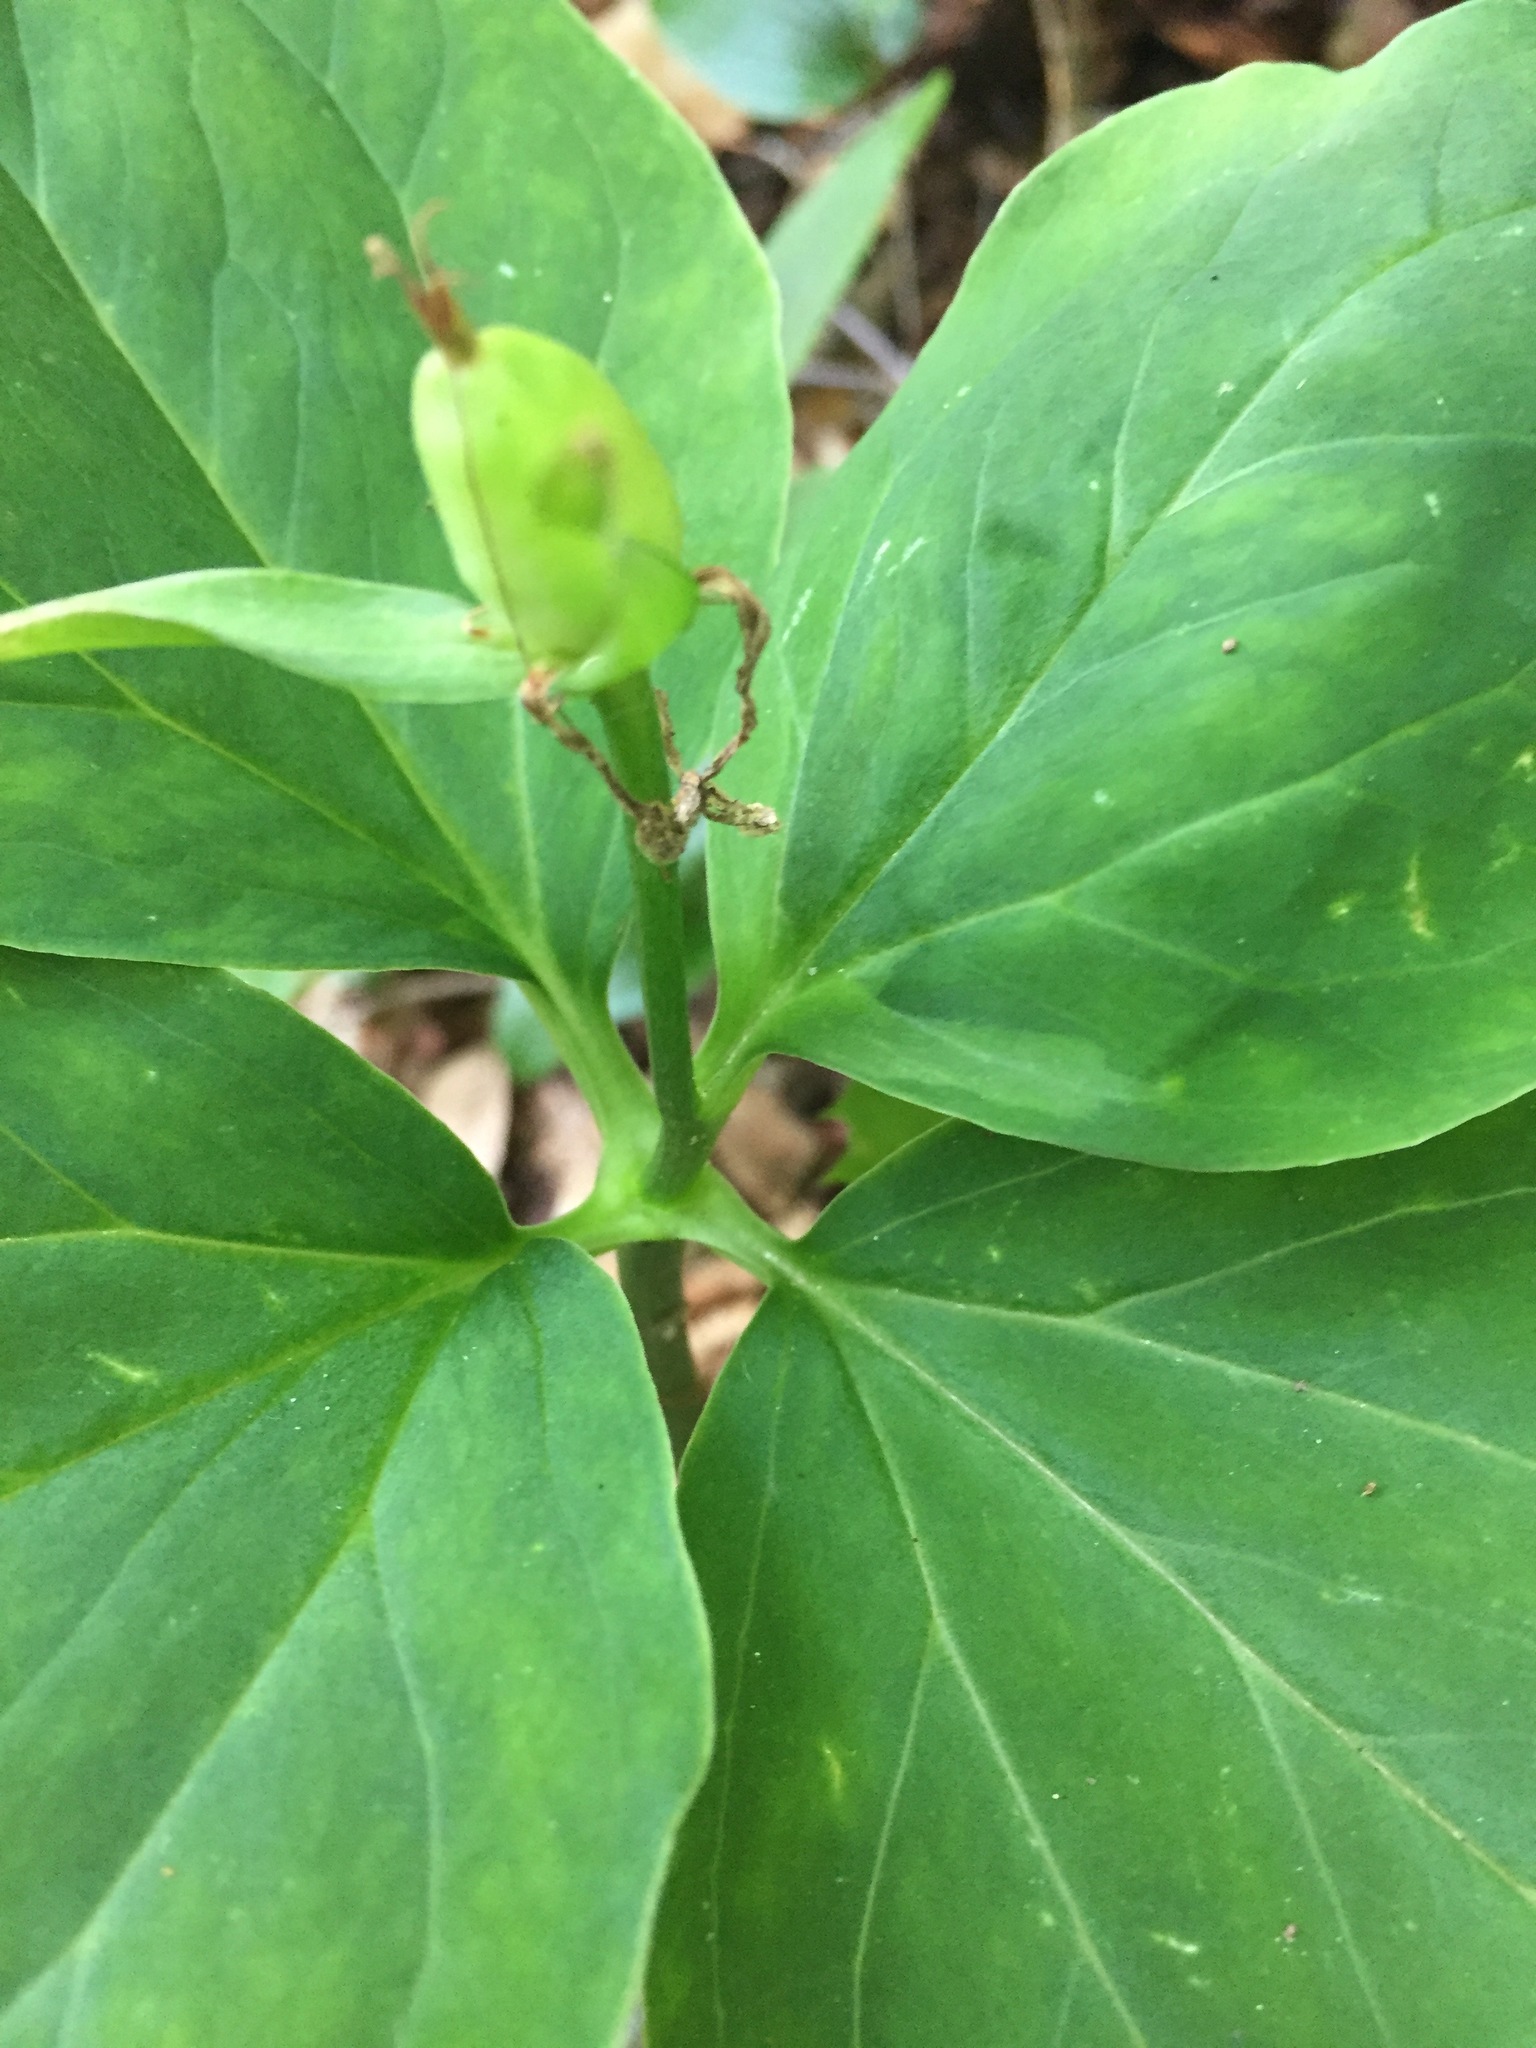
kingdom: Plantae
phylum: Tracheophyta
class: Liliopsida
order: Liliales
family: Melanthiaceae
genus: Trillium
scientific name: Trillium undulatum
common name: Paint trillium
